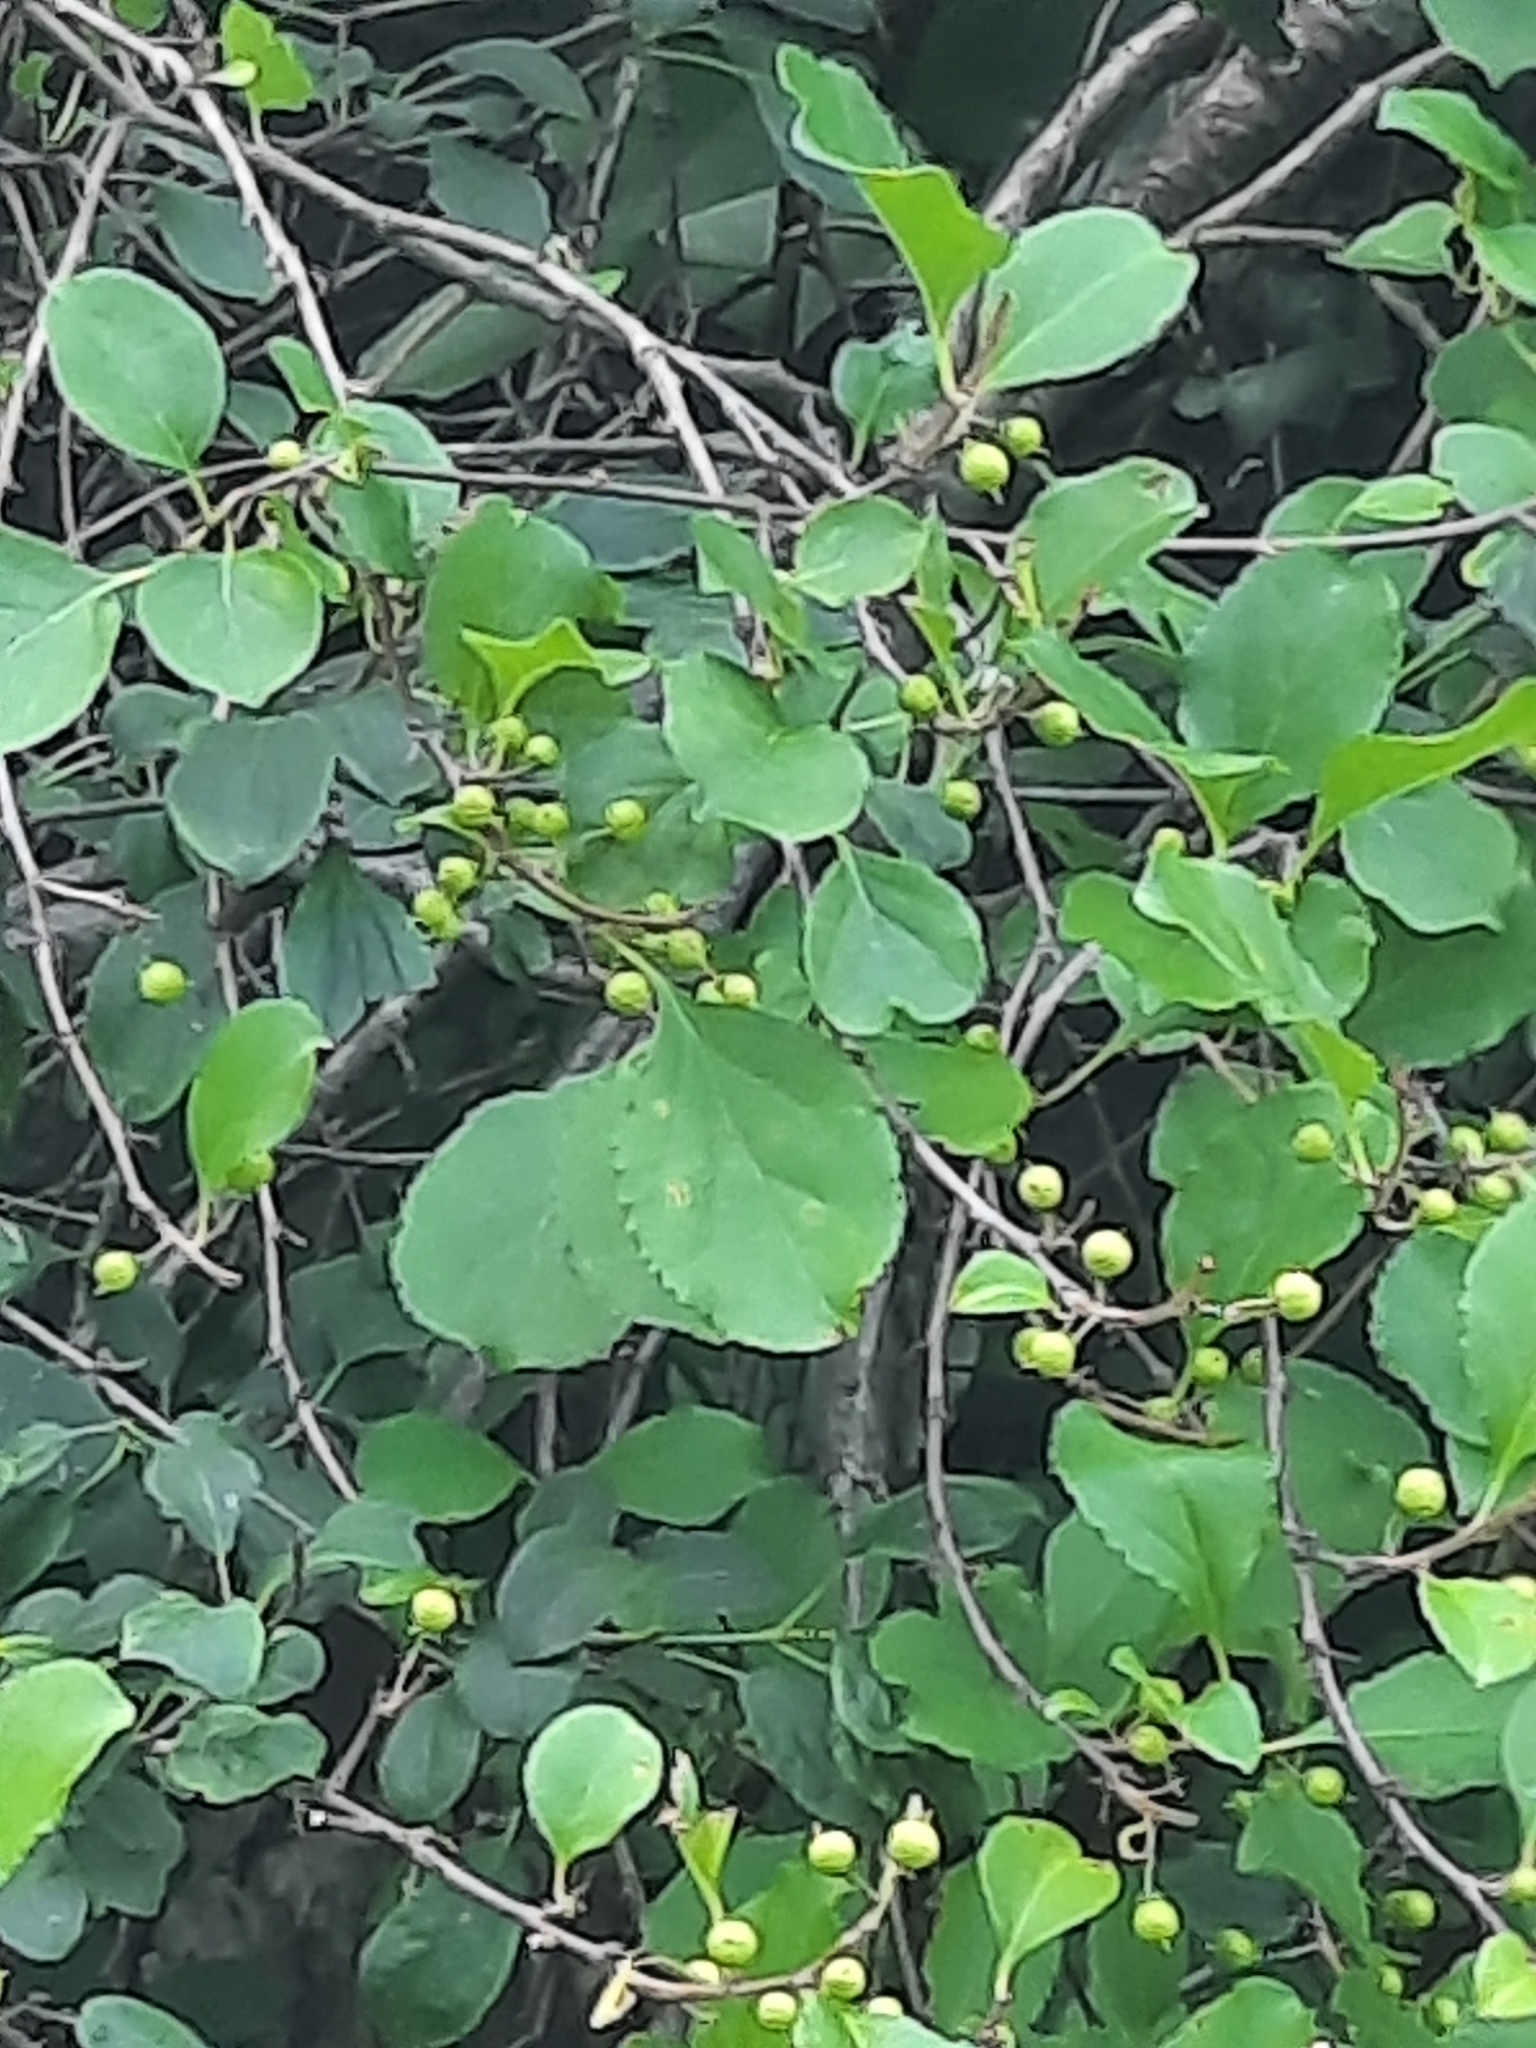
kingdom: Plantae
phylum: Tracheophyta
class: Magnoliopsida
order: Celastrales
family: Celastraceae
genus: Celastrus
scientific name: Celastrus orbiculatus
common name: Oriental bittersweet
